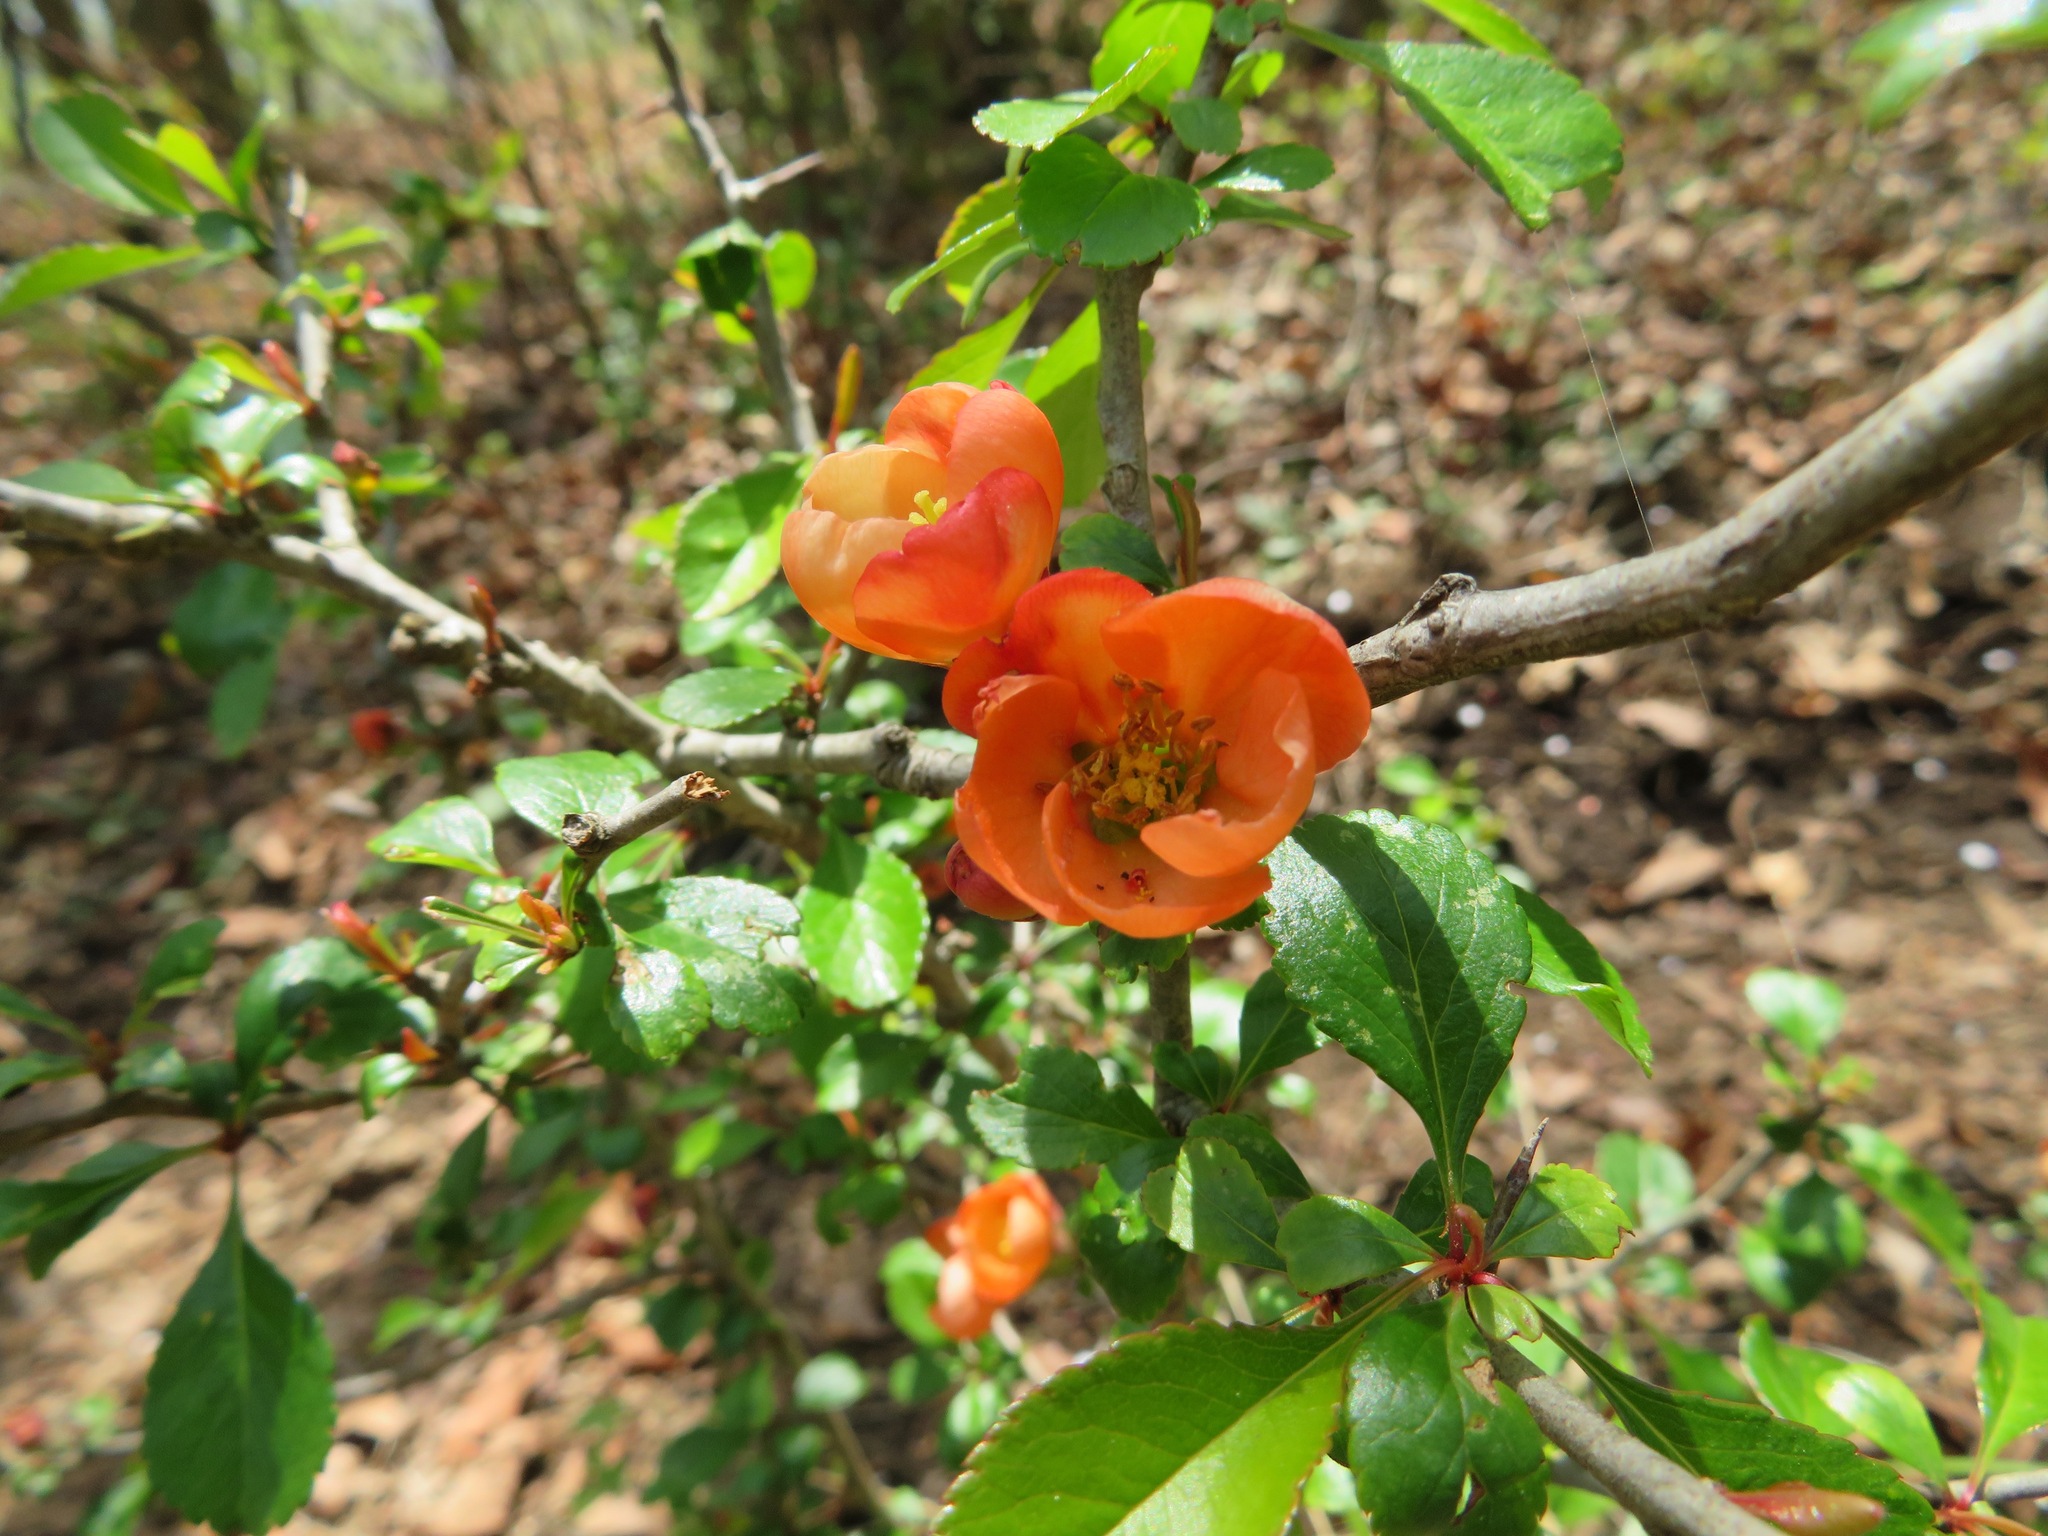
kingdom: Plantae
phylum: Tracheophyta
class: Magnoliopsida
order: Rosales
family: Rosaceae
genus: Chaenomeles
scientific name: Chaenomeles japonica
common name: Japanese quince
